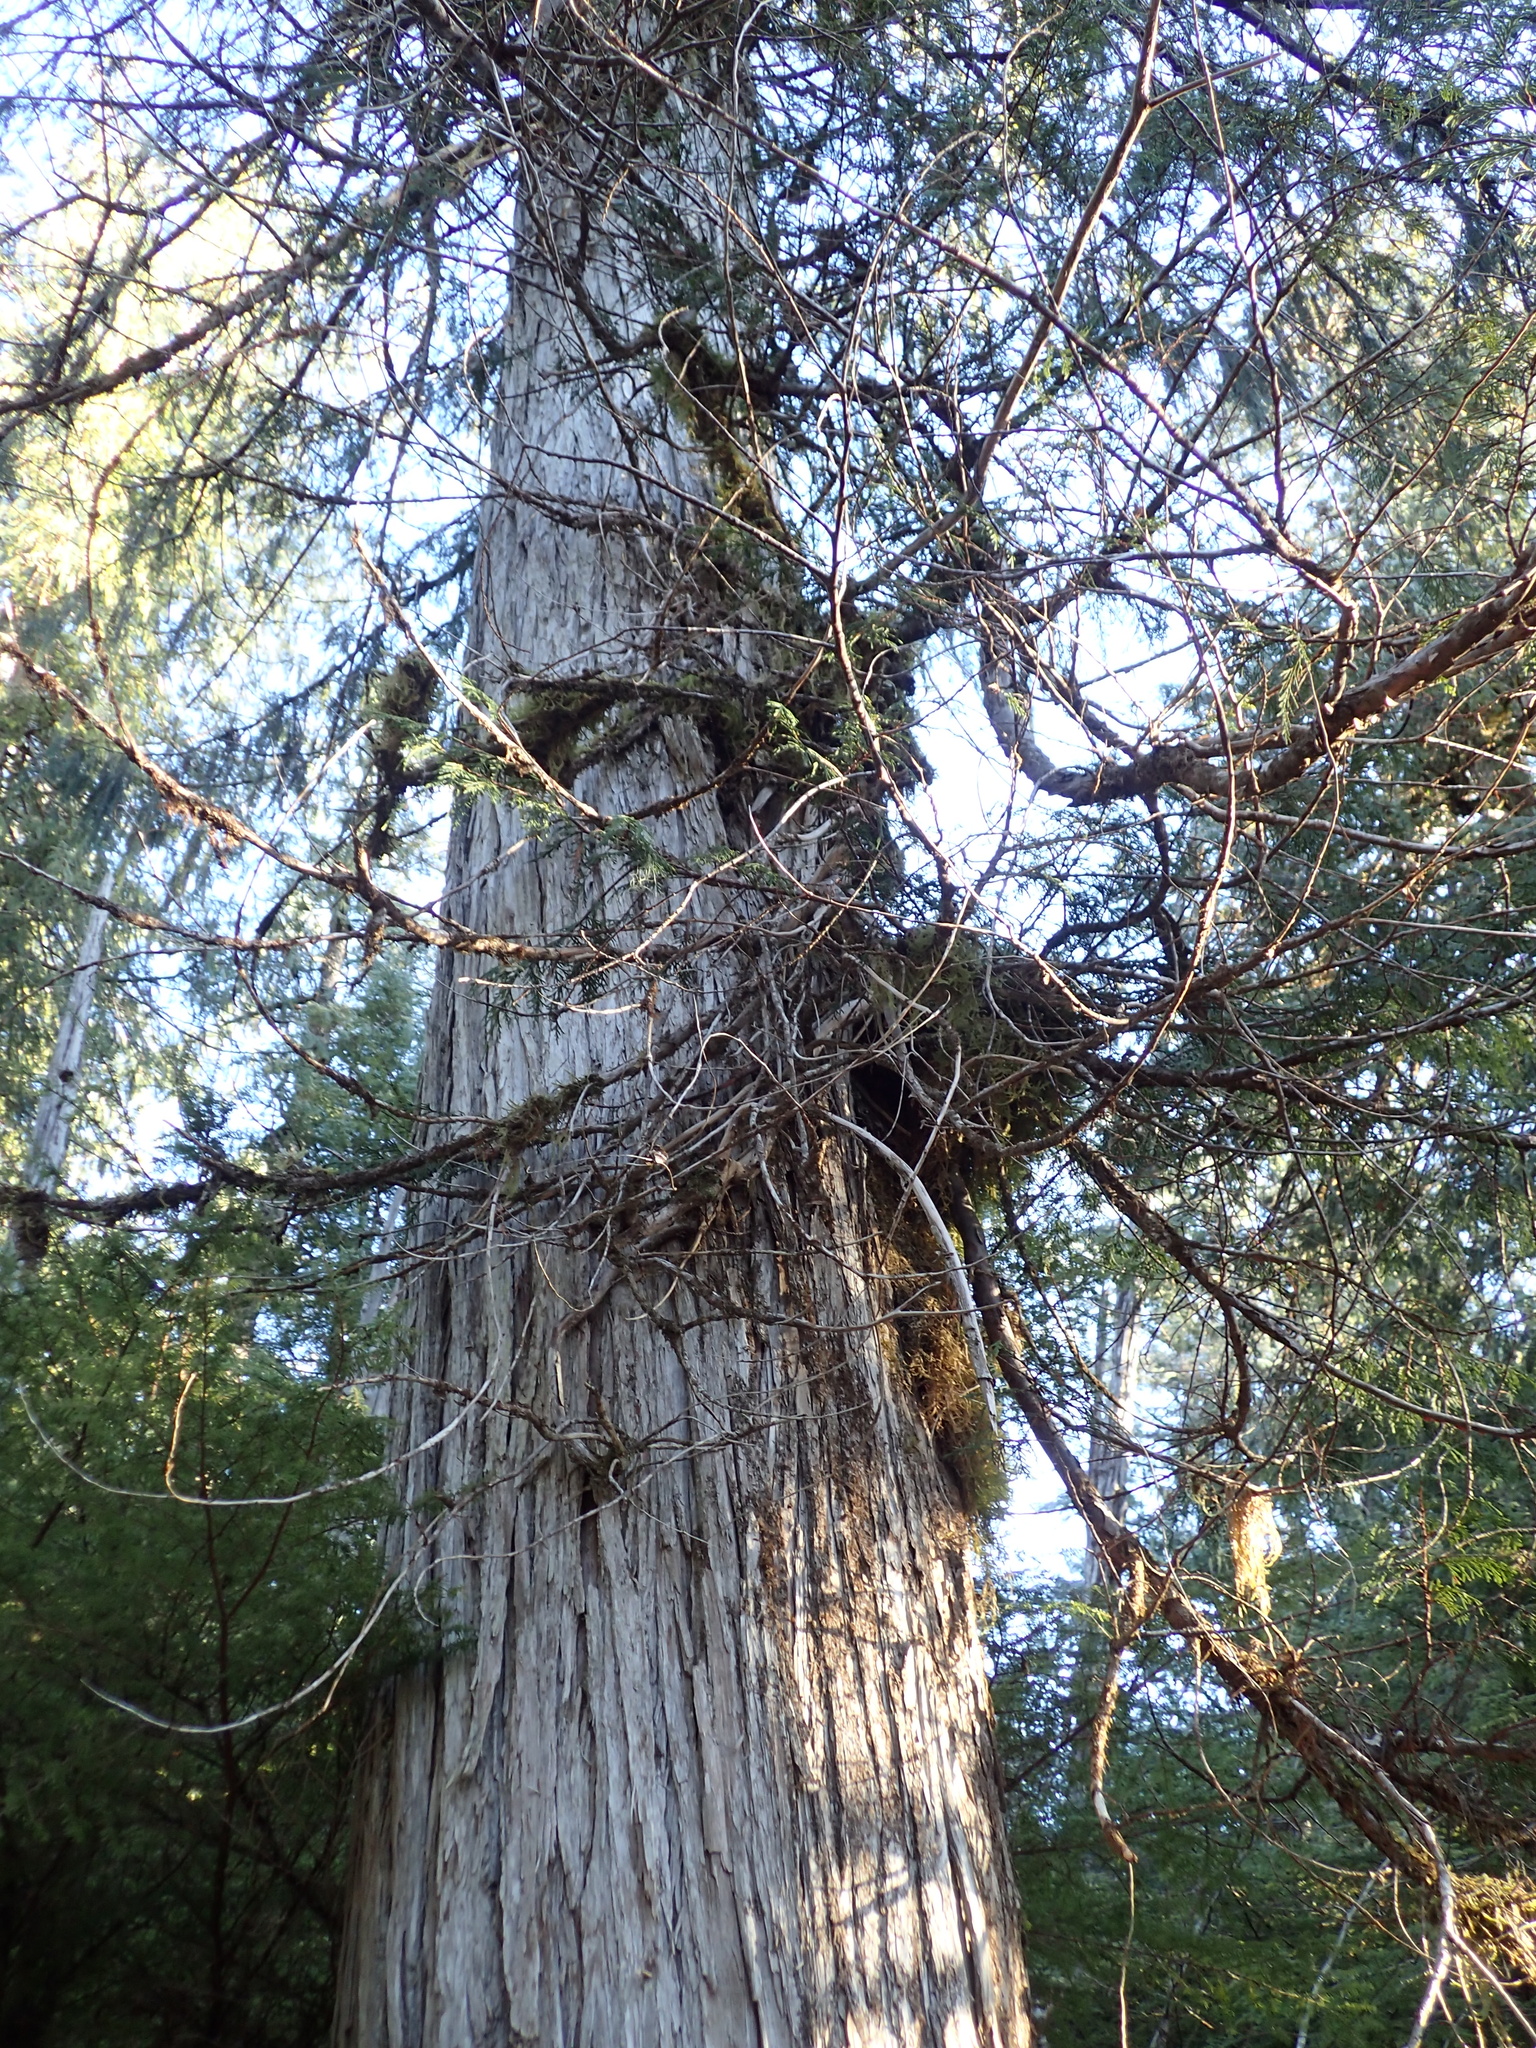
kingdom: Plantae
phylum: Tracheophyta
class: Pinopsida
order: Pinales
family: Cupressaceae
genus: Xanthocyparis
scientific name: Xanthocyparis nootkatensis
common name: Nootka cypress
